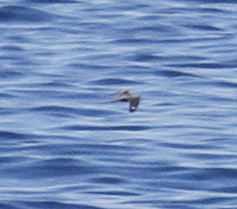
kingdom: Animalia
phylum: Chordata
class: Aves
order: Caprimulgiformes
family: Caprimulgidae
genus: Caprimulgus
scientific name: Caprimulgus europaeus
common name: European nightjar
